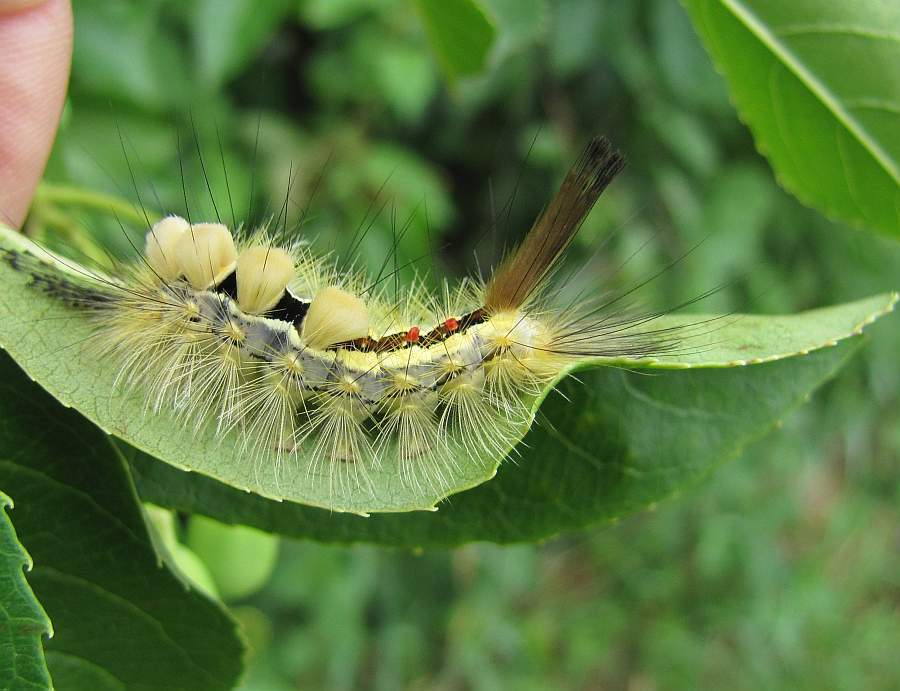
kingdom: Animalia
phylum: Arthropoda
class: Insecta
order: Lepidoptera
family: Erebidae
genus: Orgyia
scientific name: Orgyia leucostigma
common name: White-marked tussock moth
